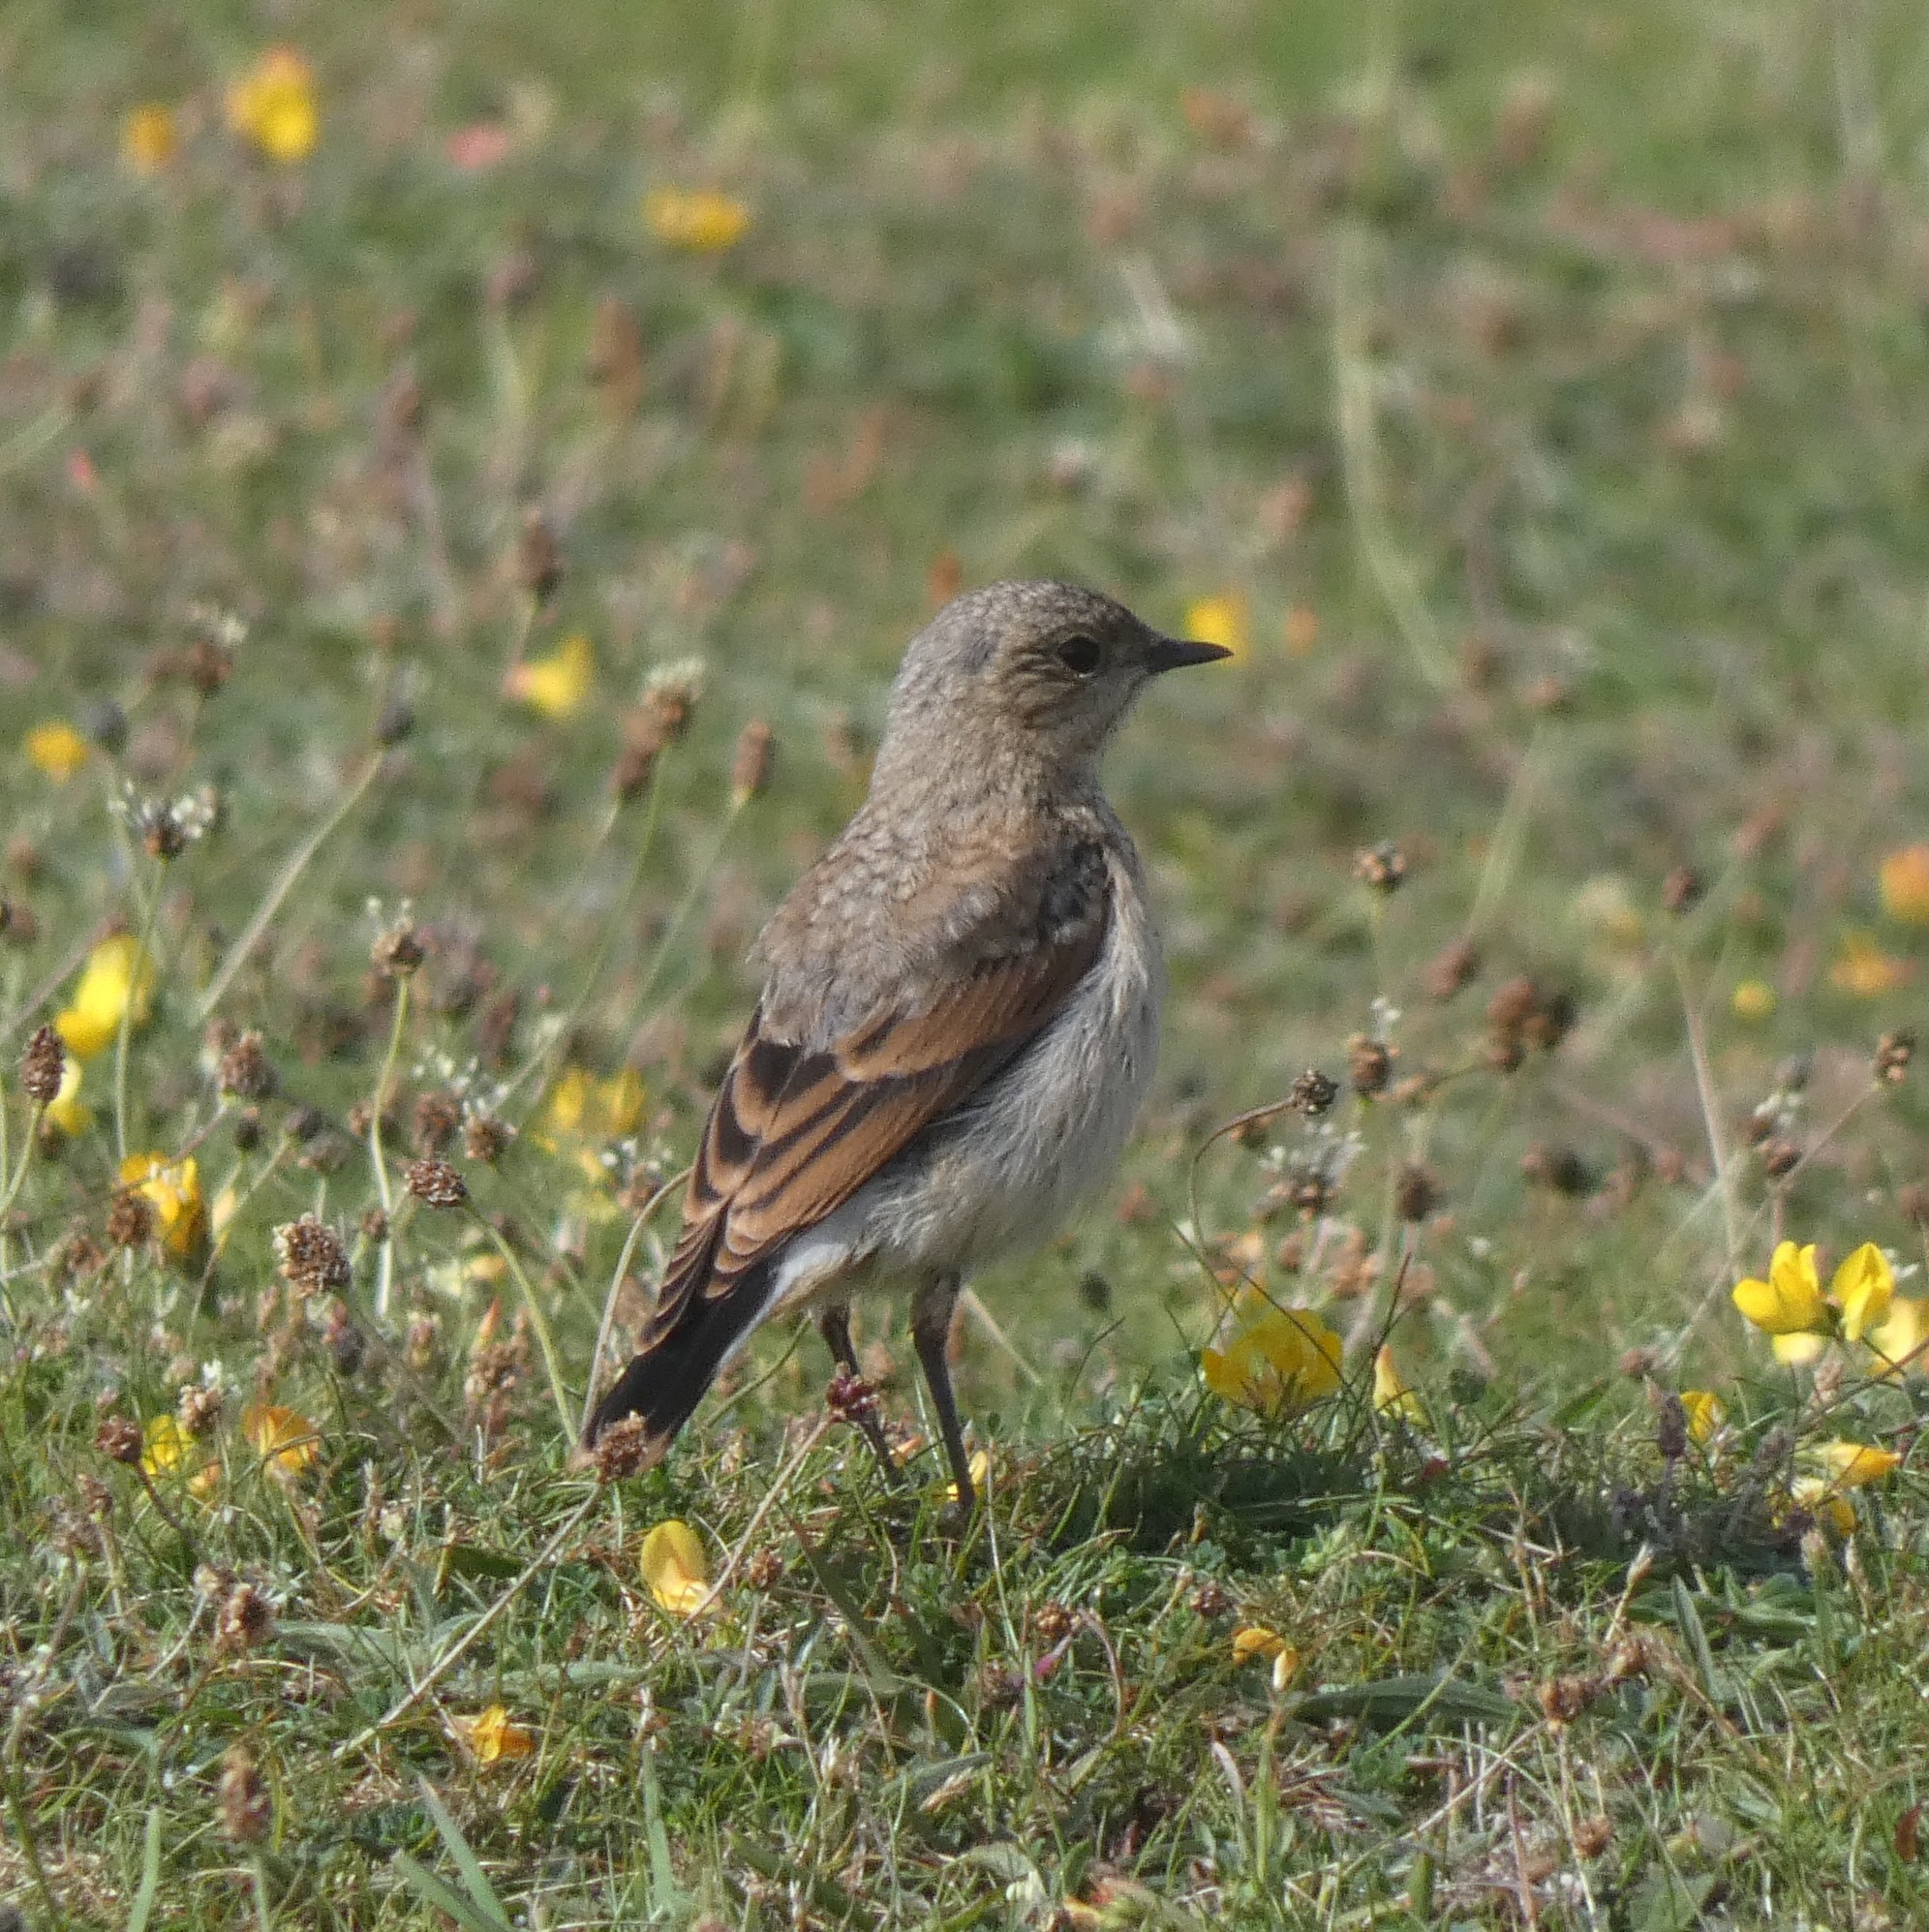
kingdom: Animalia
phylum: Chordata
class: Aves
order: Passeriformes
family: Muscicapidae
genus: Oenanthe
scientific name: Oenanthe oenanthe
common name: Northern wheatear
